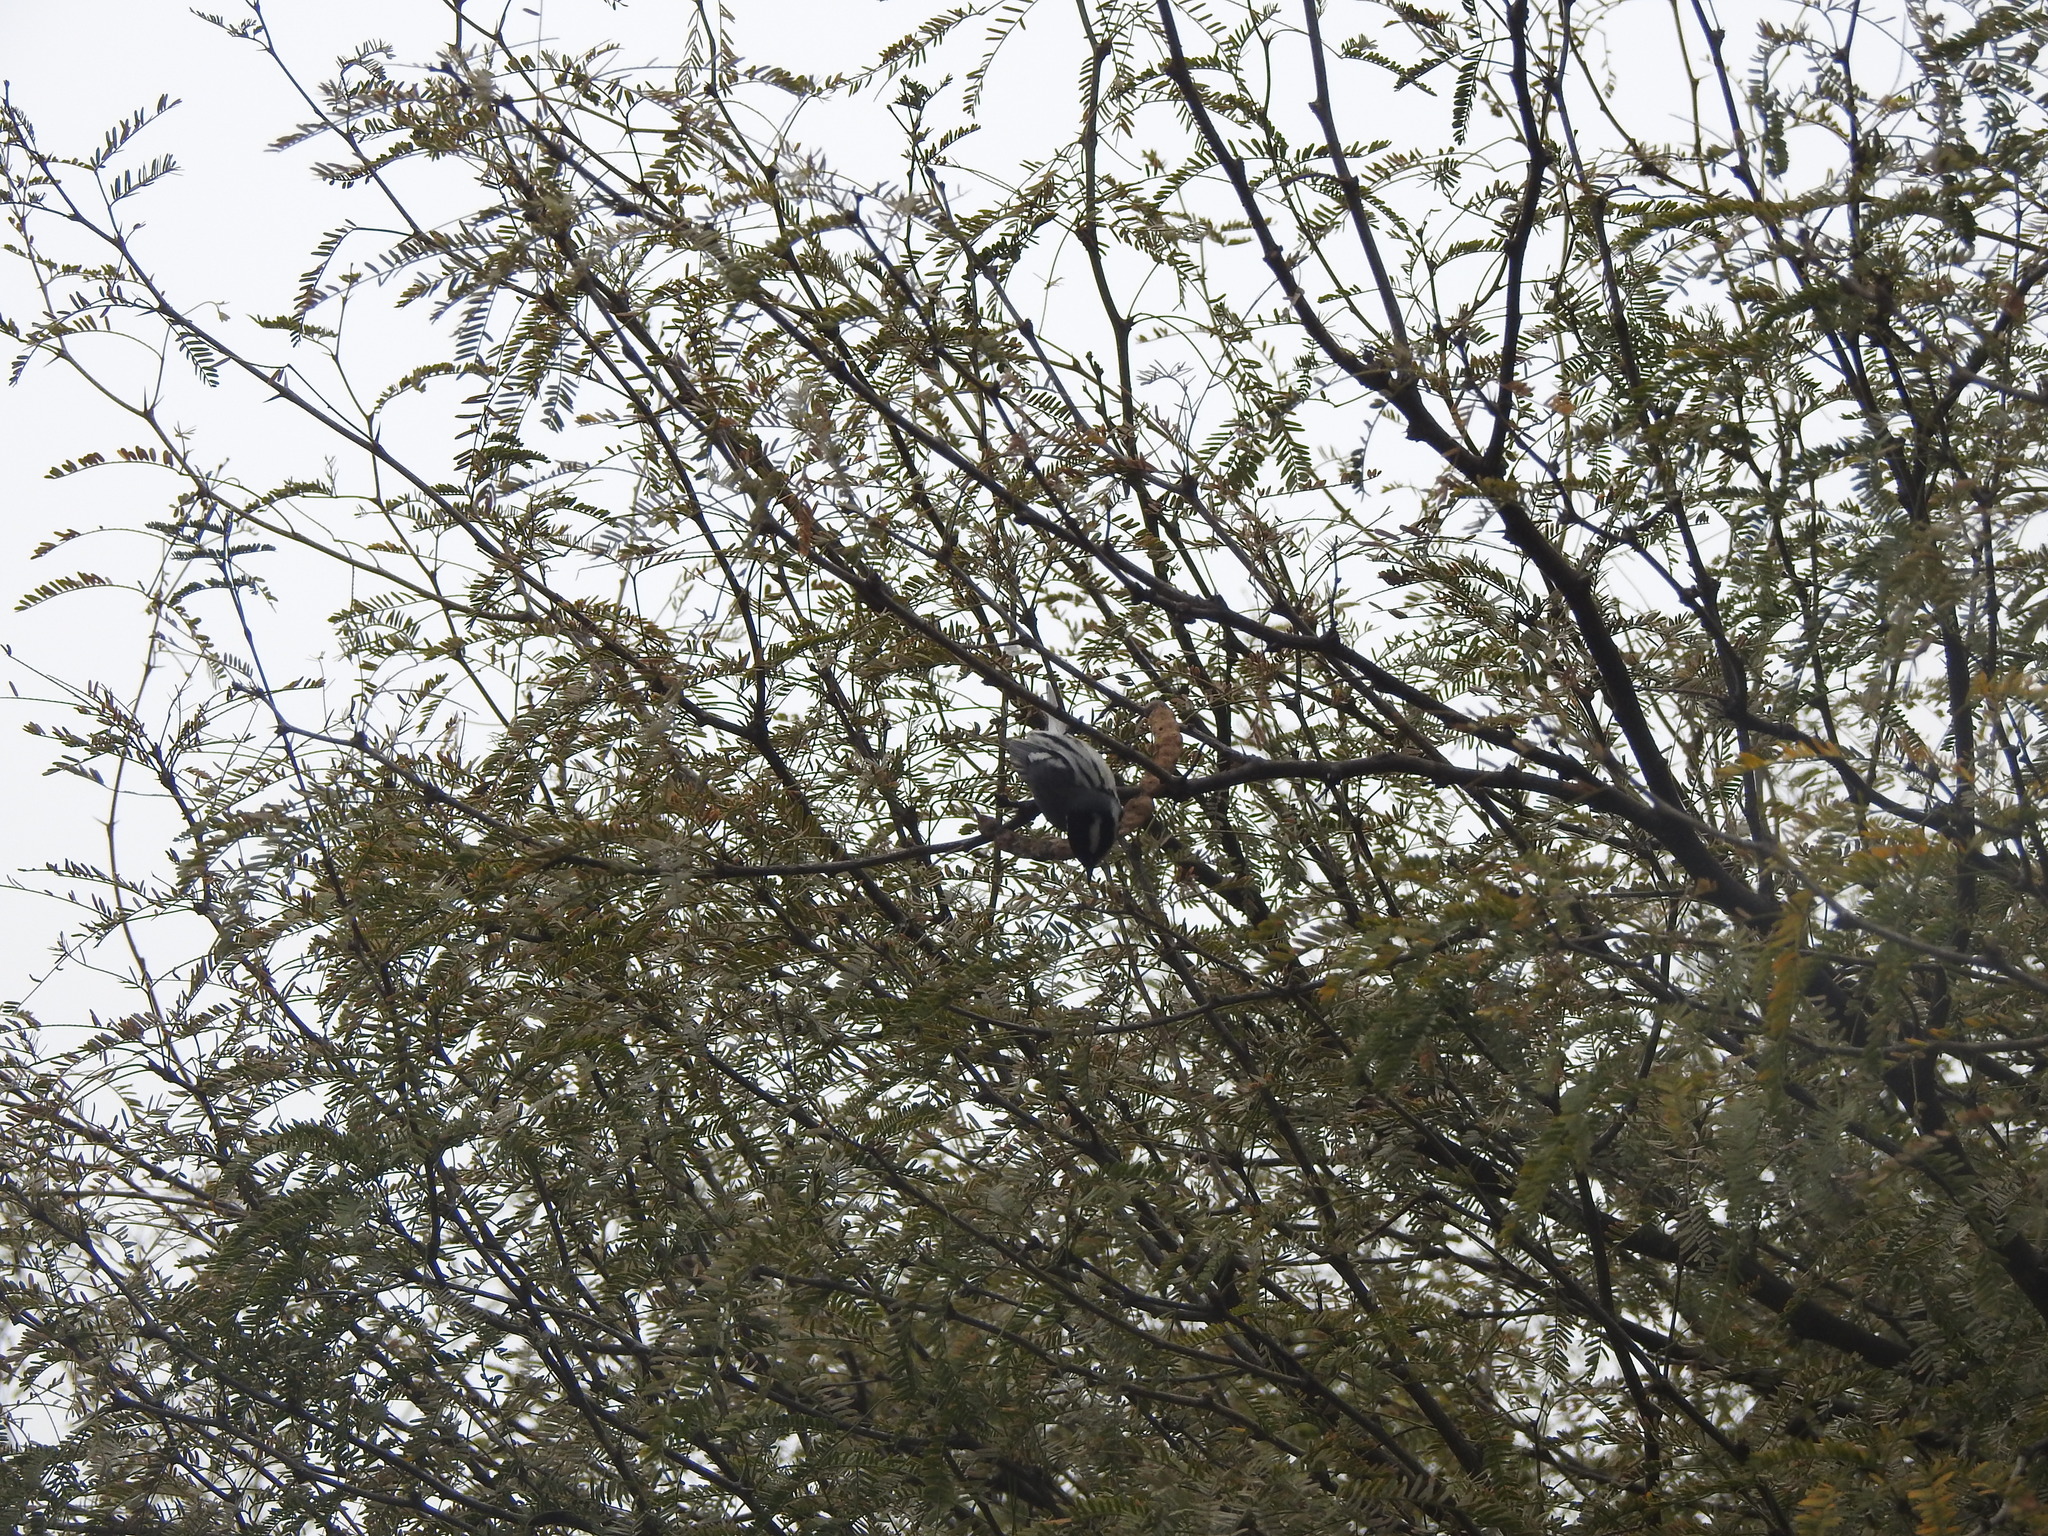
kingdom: Animalia
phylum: Chordata
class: Aves
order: Passeriformes
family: Parulidae
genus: Setophaga
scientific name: Setophaga nigrescens
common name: Black-throated gray warbler
